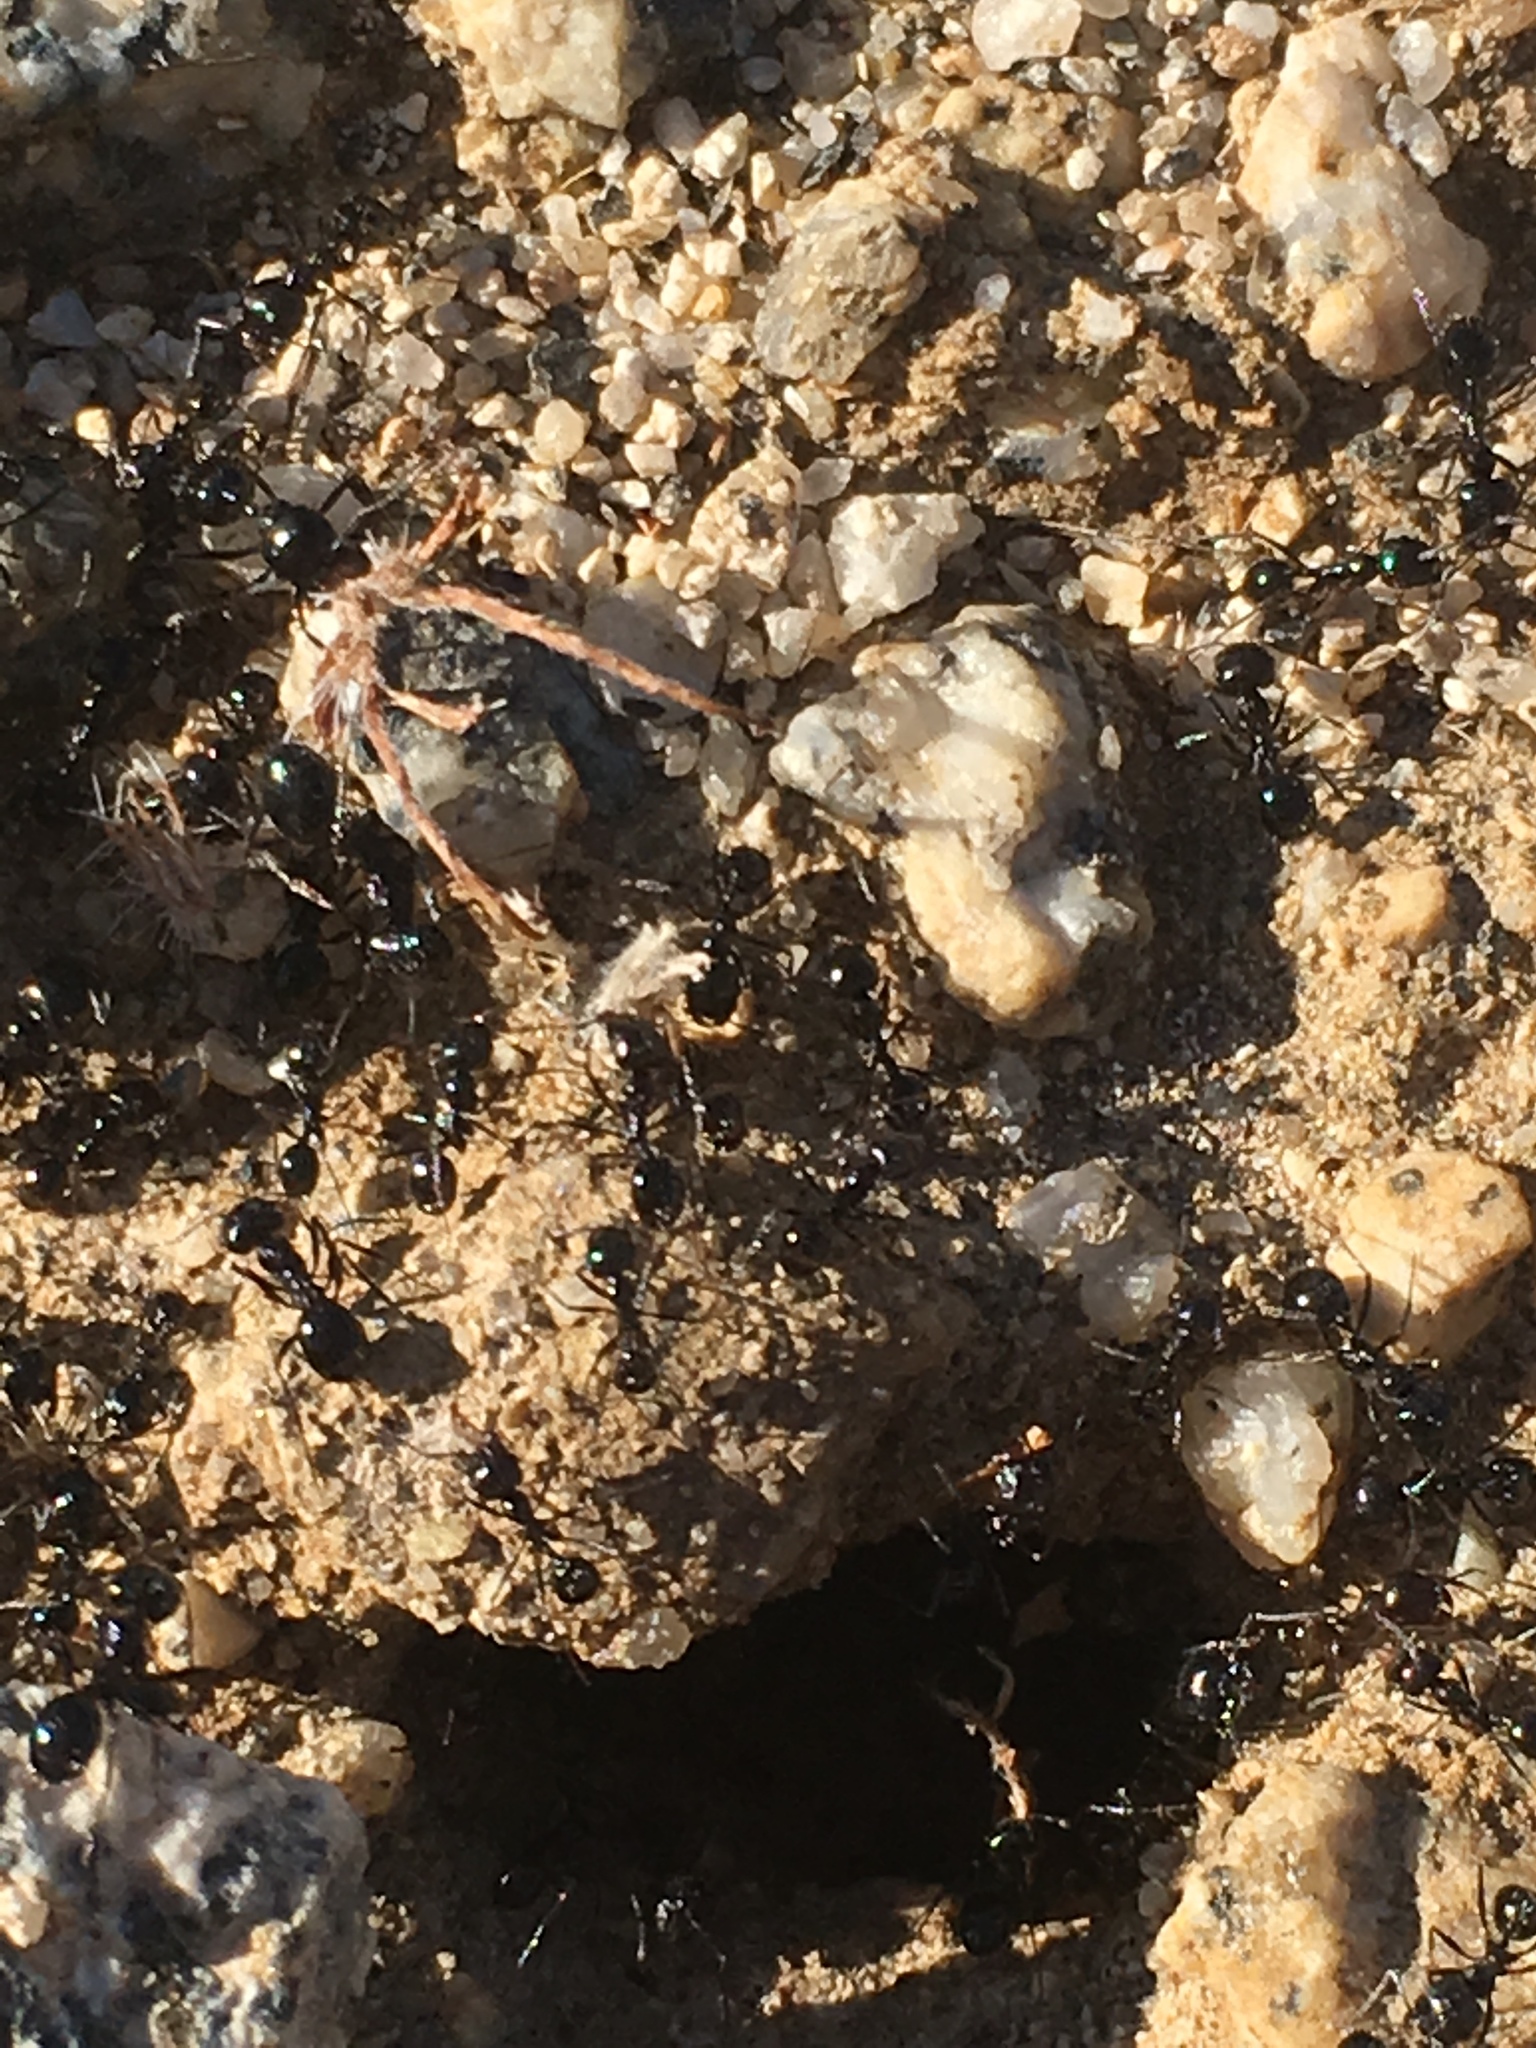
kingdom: Animalia
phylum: Arthropoda
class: Insecta
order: Hymenoptera
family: Formicidae
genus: Messor
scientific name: Messor pergandei
